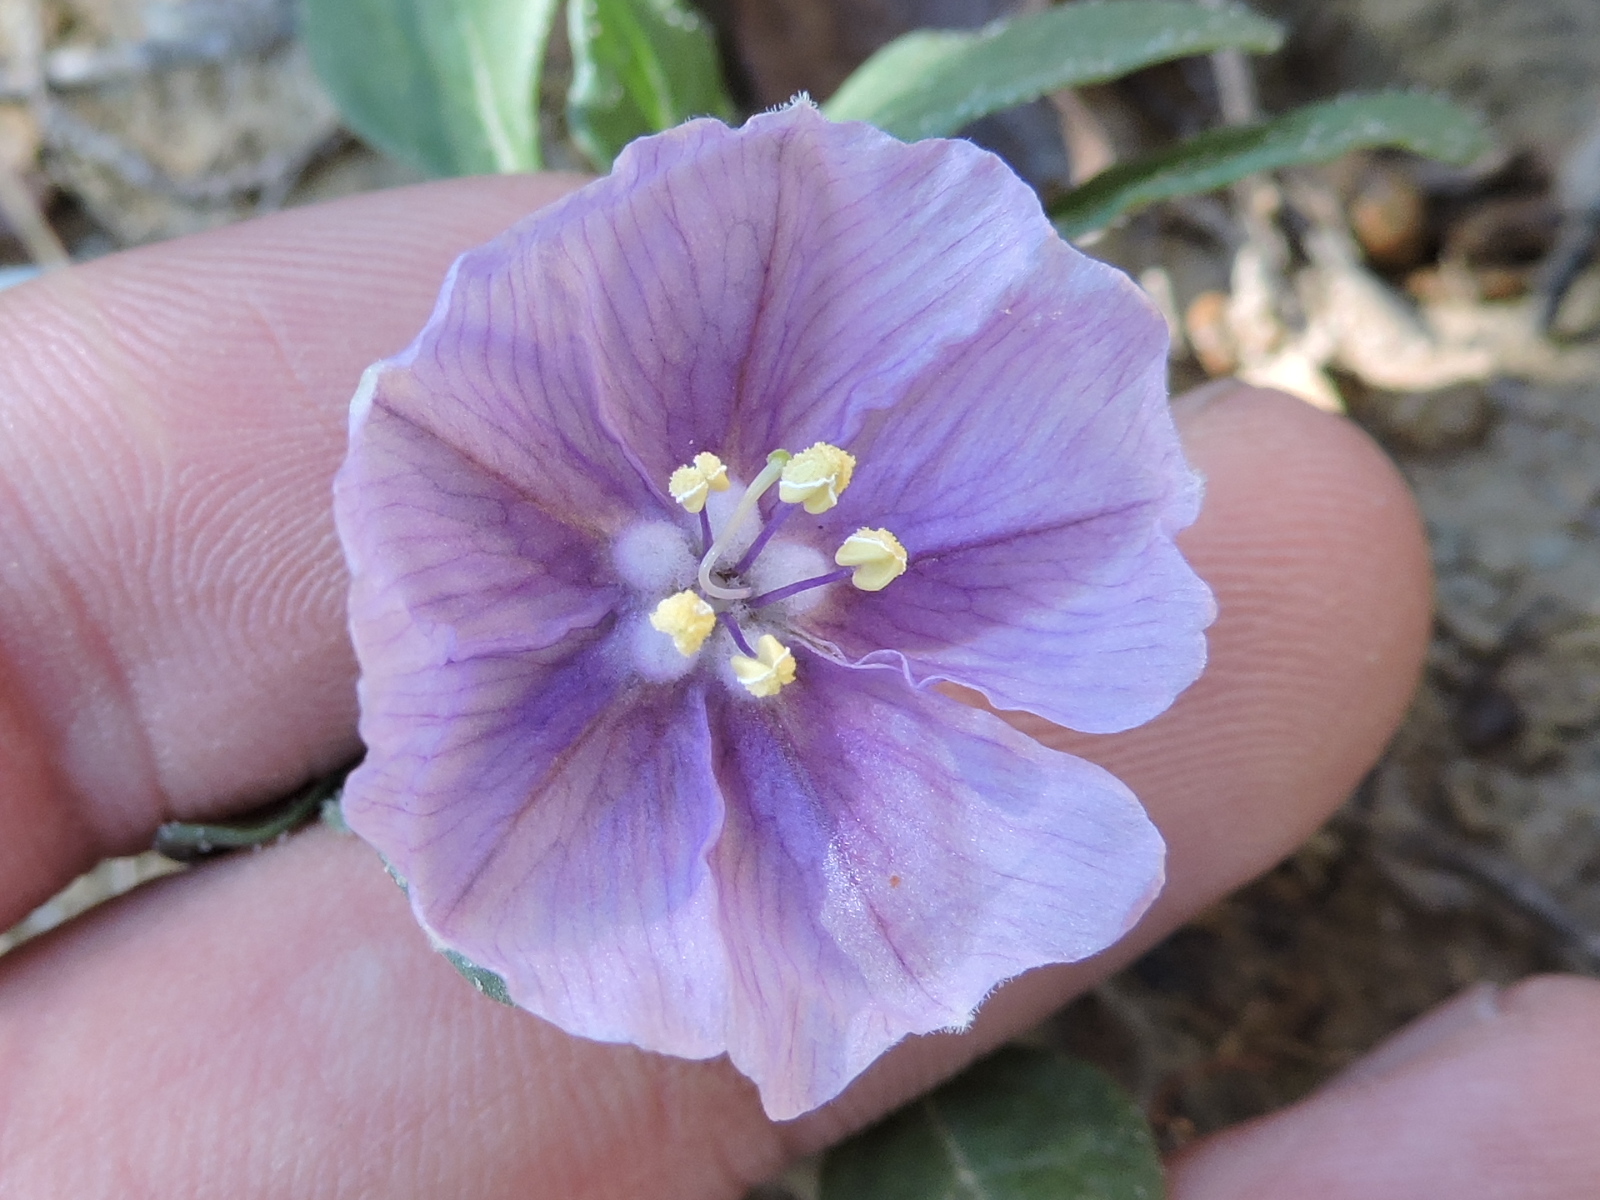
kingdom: Plantae
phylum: Tracheophyta
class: Magnoliopsida
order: Solanales
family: Solanaceae
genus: Quincula
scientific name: Quincula lobata
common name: Purple-ground-cherry
